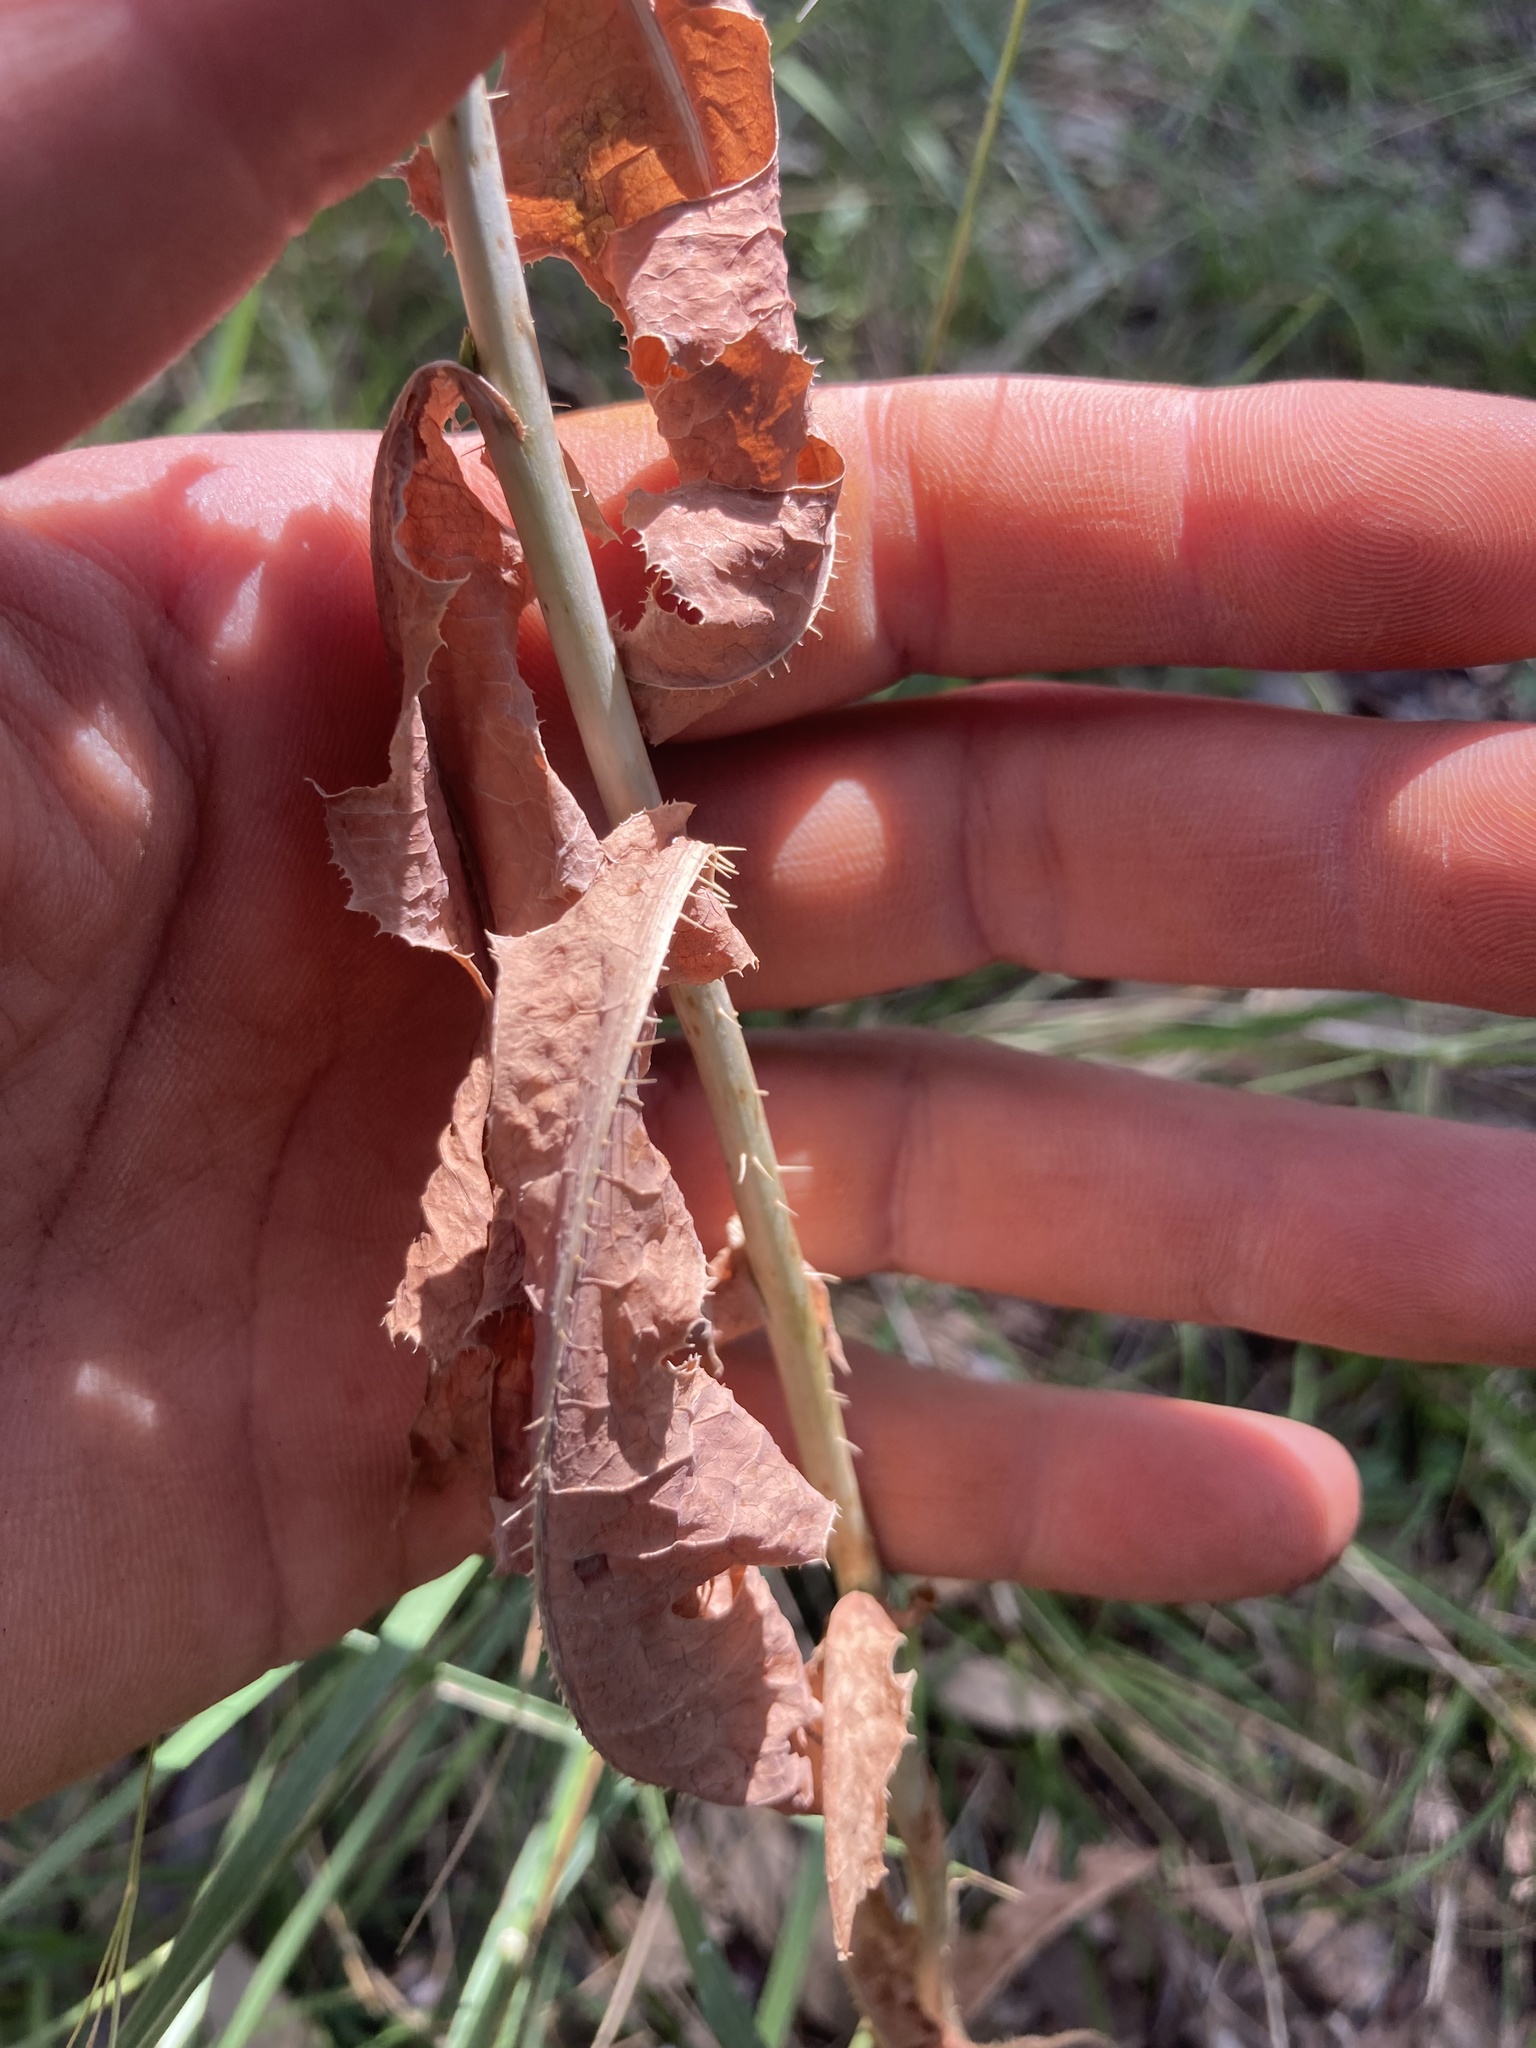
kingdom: Plantae
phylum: Tracheophyta
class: Magnoliopsida
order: Asterales
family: Asteraceae
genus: Lactuca
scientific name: Lactuca serriola
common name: Prickly lettuce
